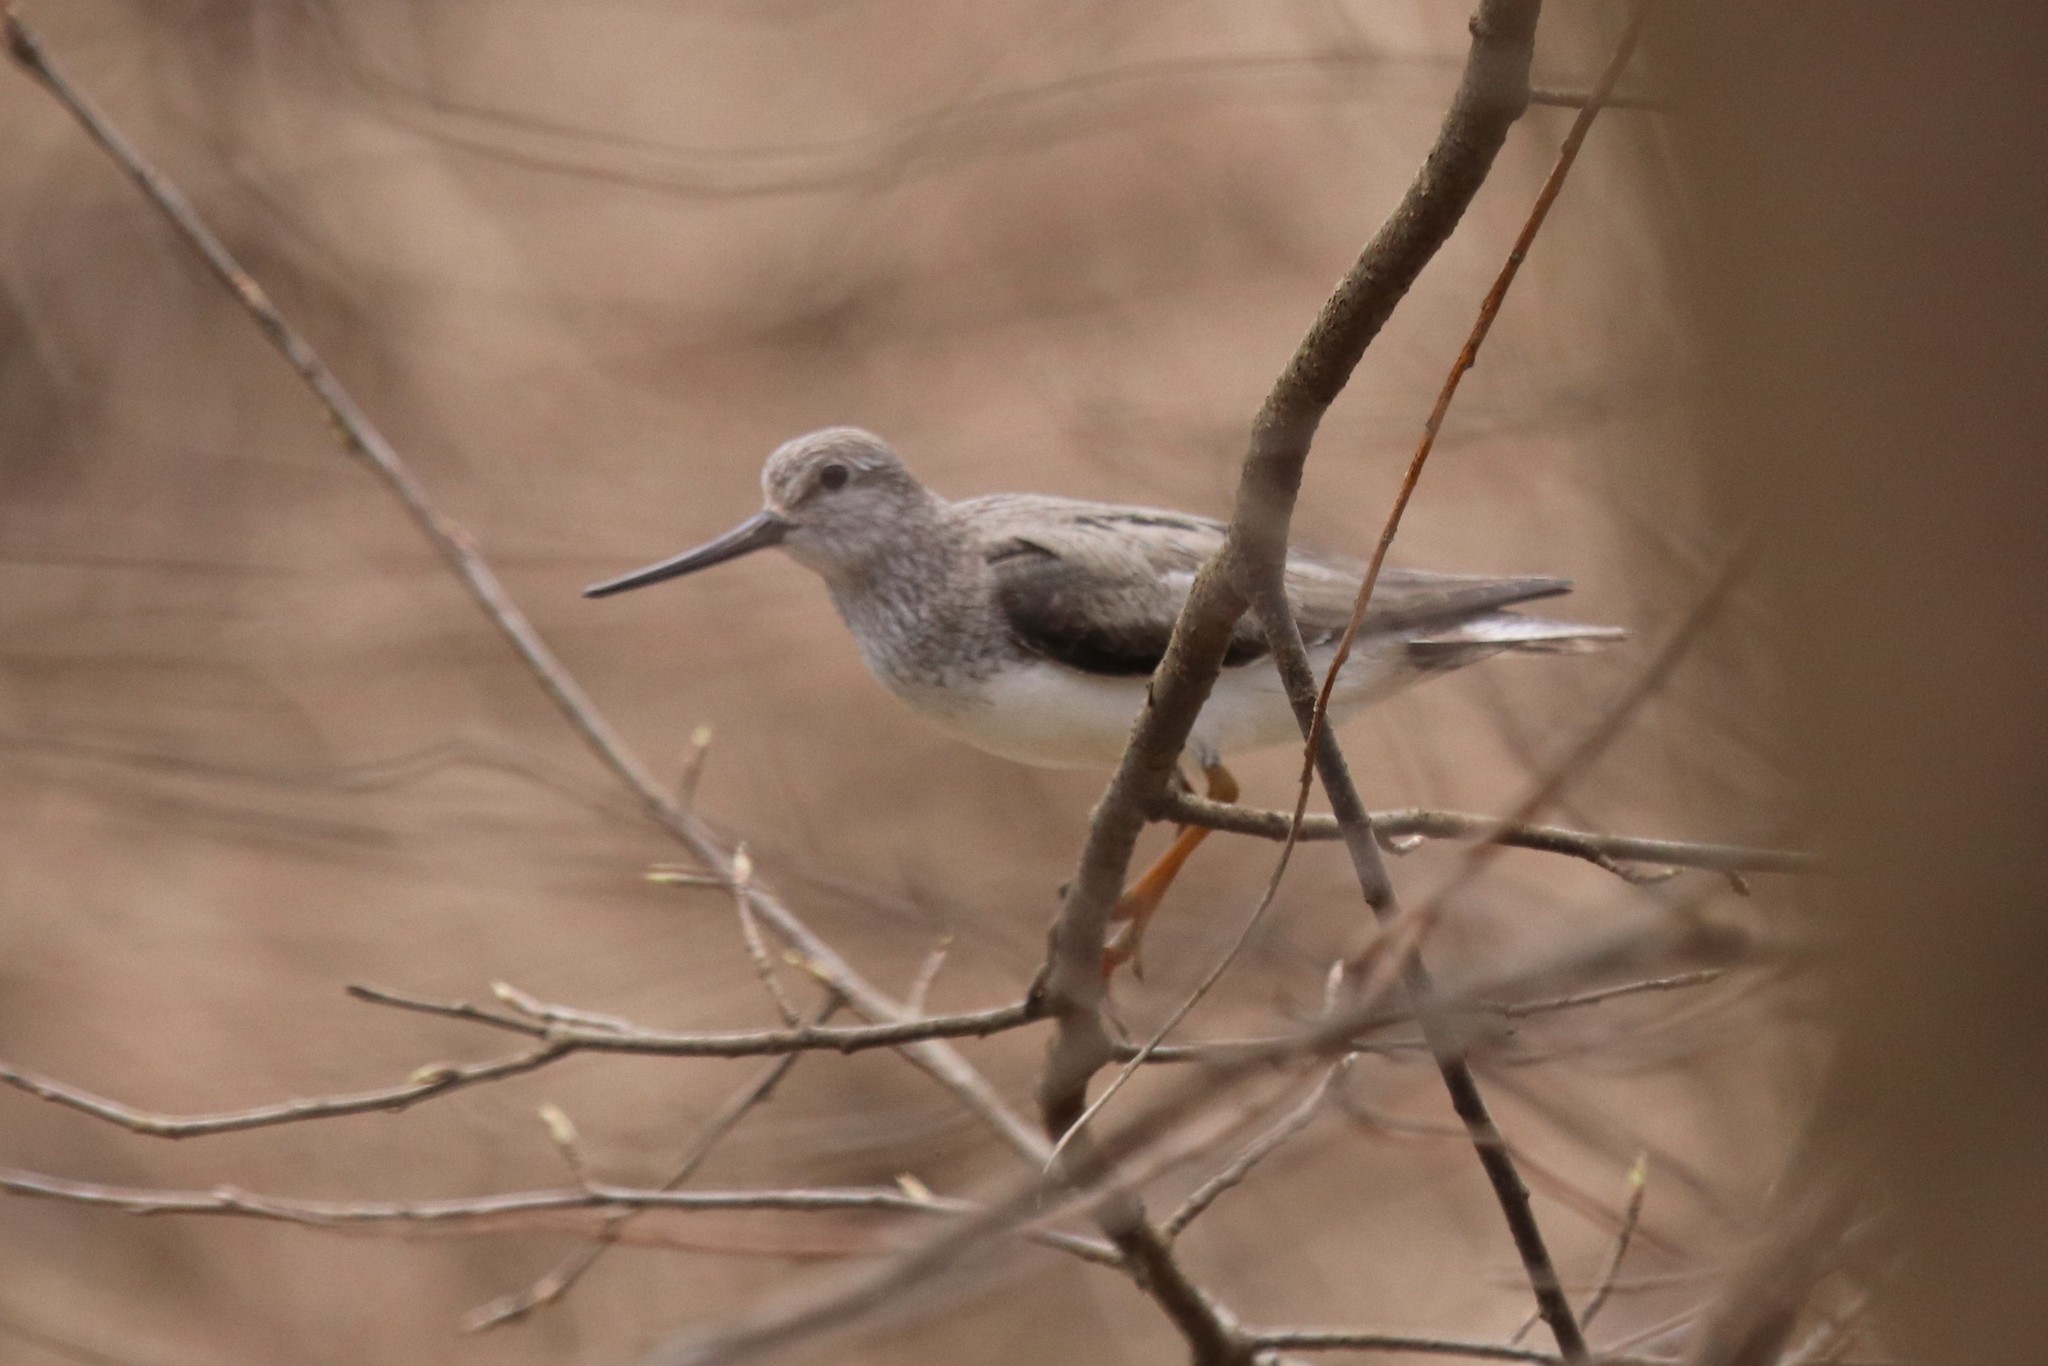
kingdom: Animalia
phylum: Chordata
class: Aves
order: Charadriiformes
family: Scolopacidae
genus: Xenus
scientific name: Xenus cinereus
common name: Terek sandpiper
